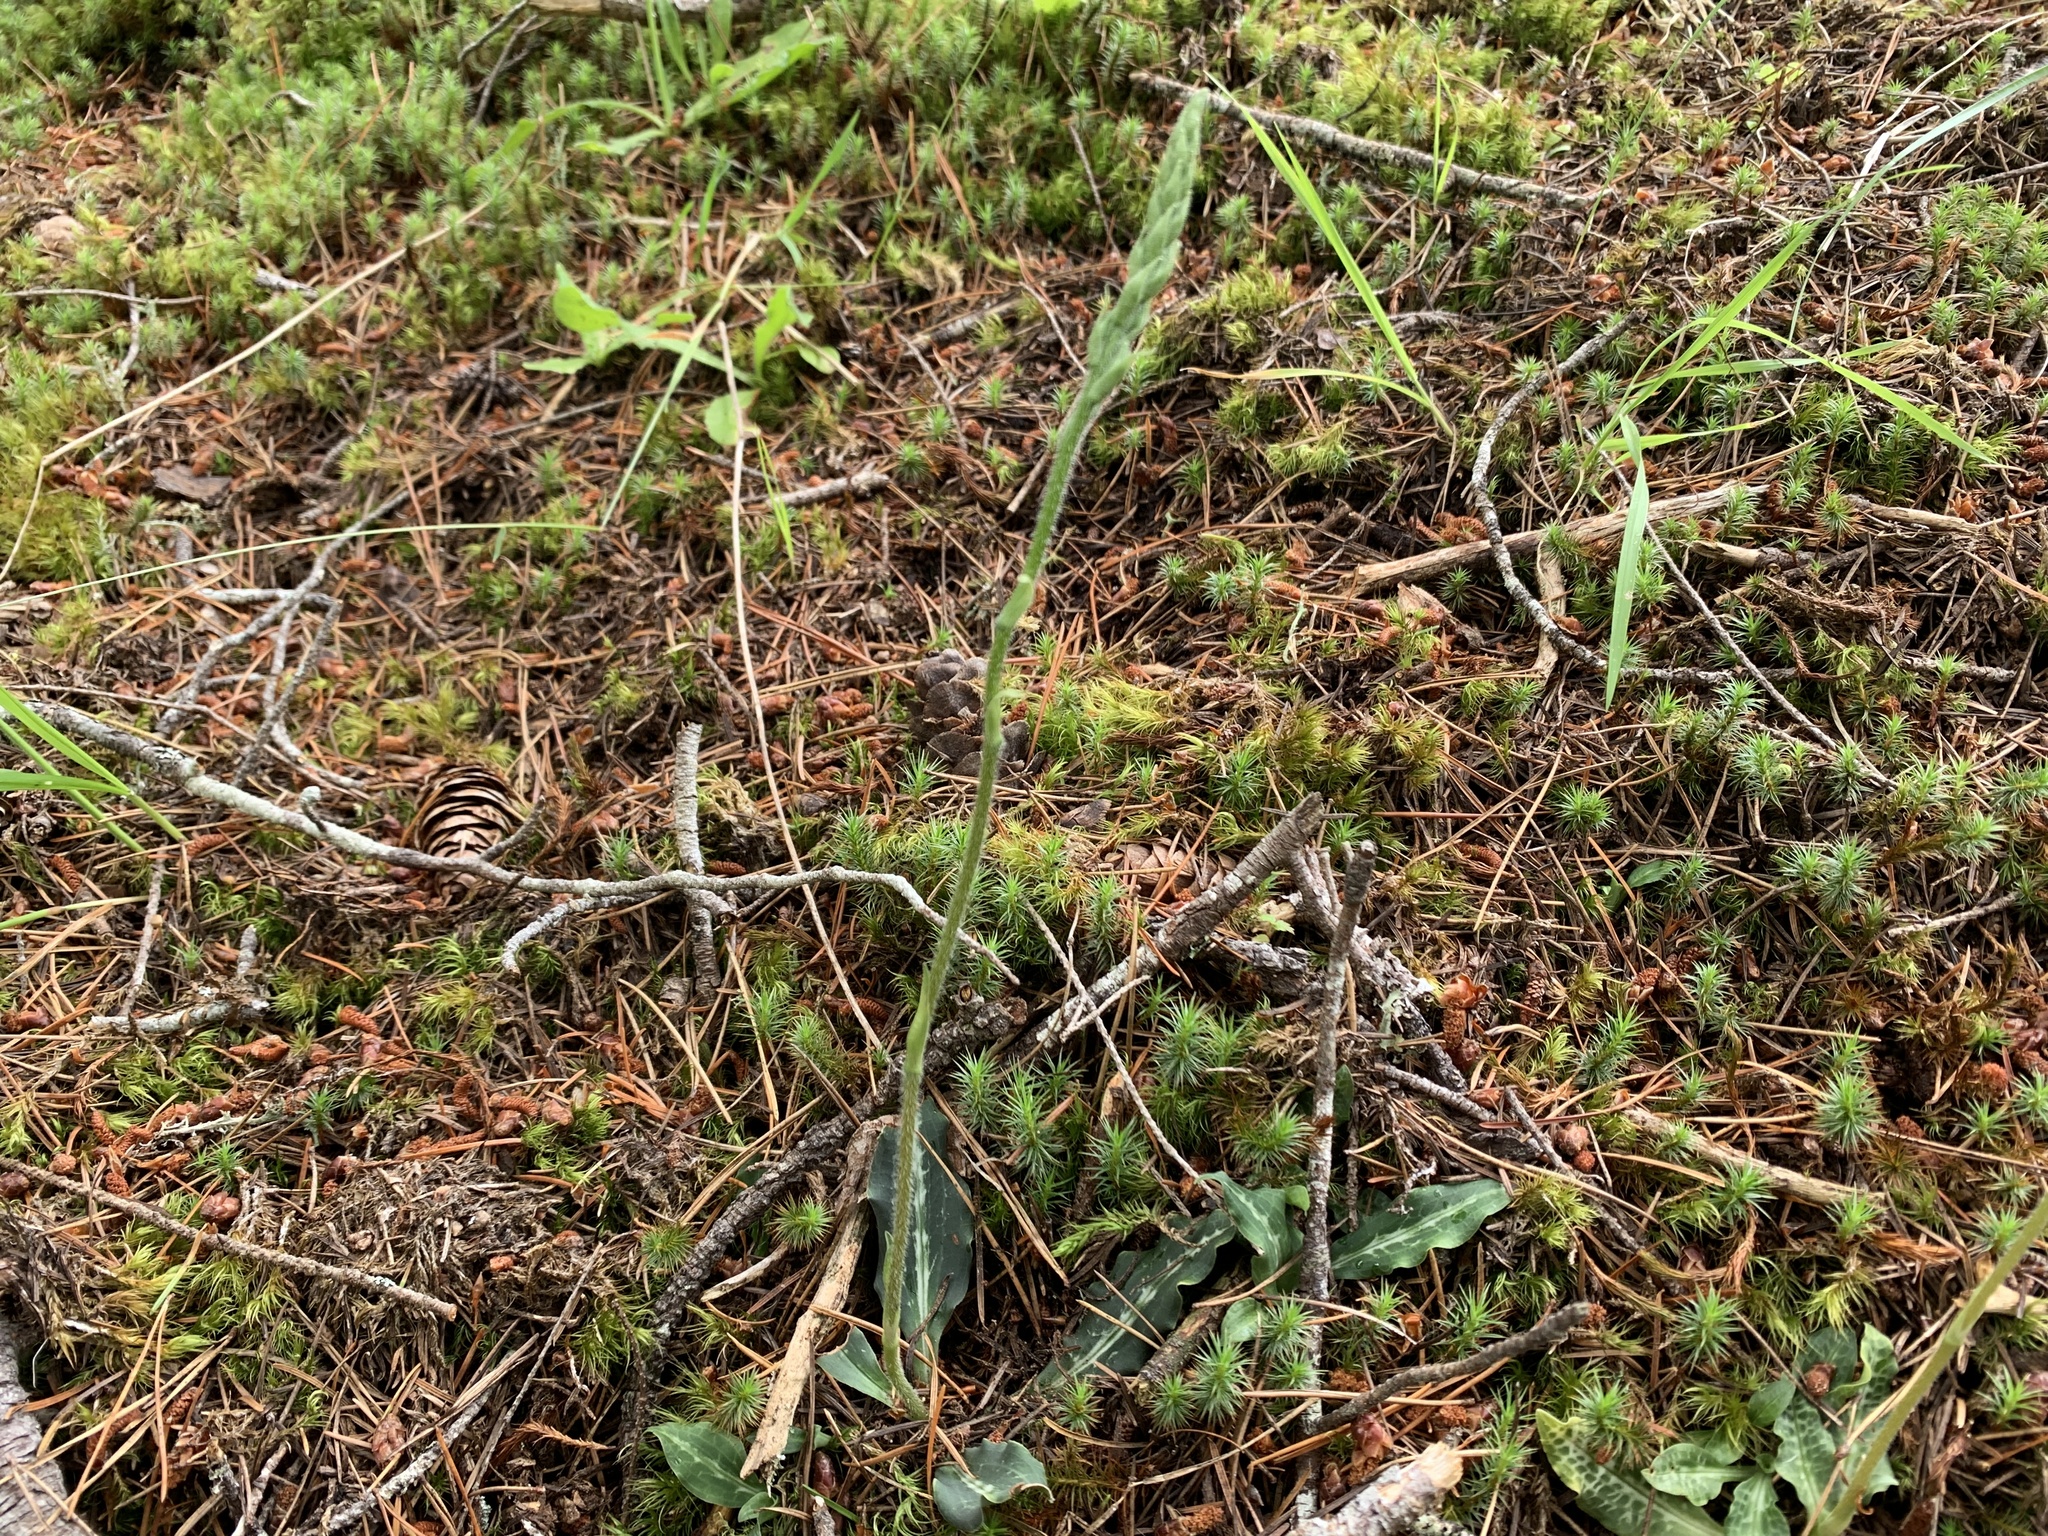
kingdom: Plantae
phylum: Tracheophyta
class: Liliopsida
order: Asparagales
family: Orchidaceae
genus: Goodyera
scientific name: Goodyera oblongifolia
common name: Giant rattlesnake-plantain
